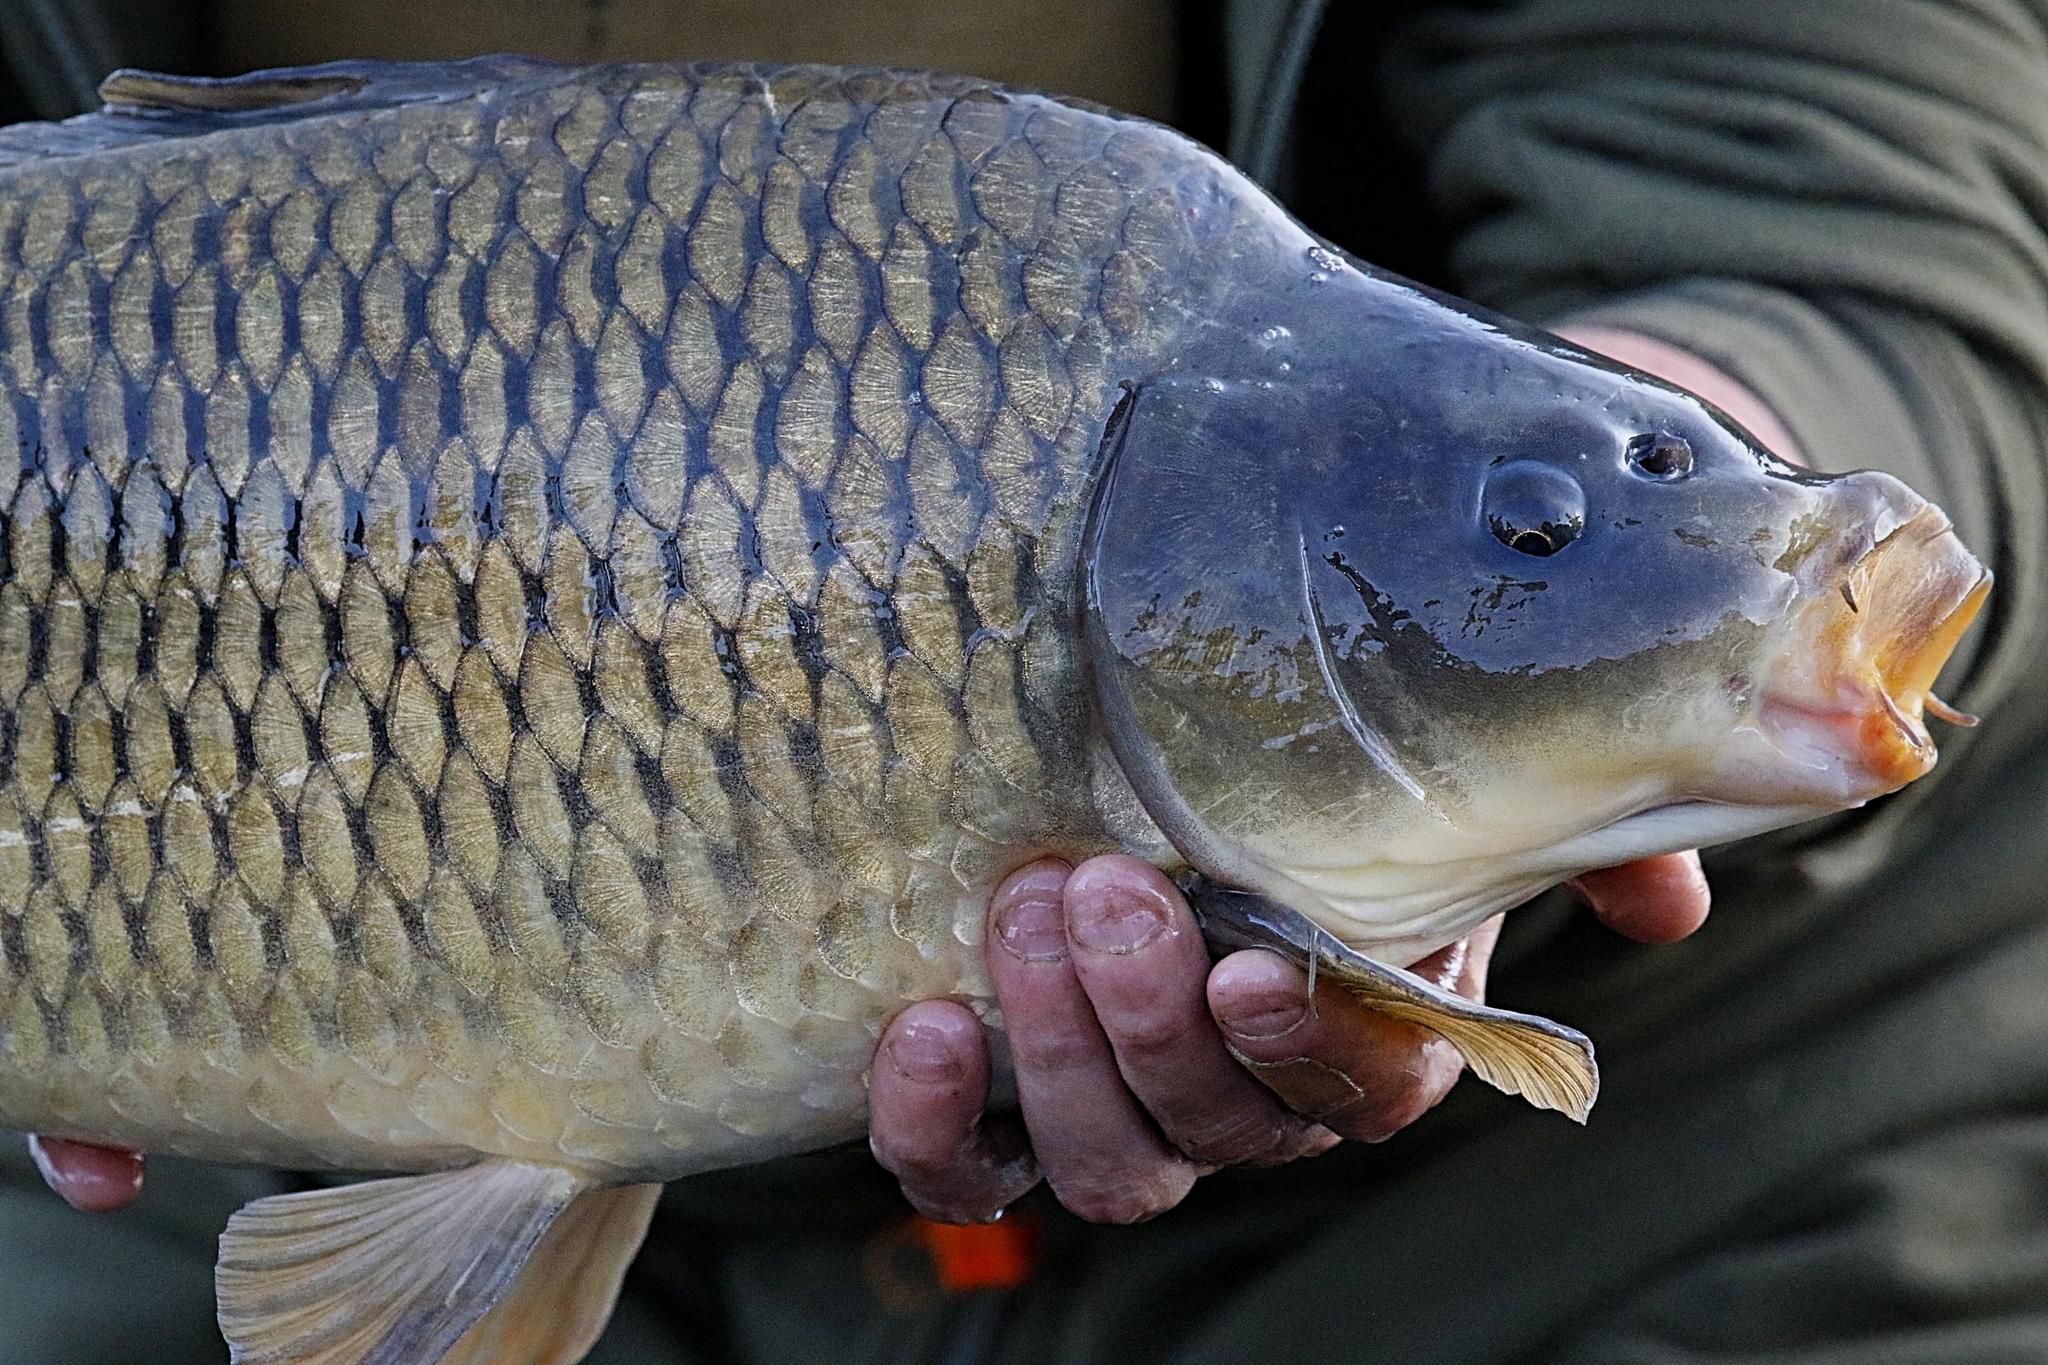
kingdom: Animalia
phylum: Chordata
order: Cypriniformes
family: Cyprinidae
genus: Cyprinus
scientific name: Cyprinus carpio
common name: Common carp
